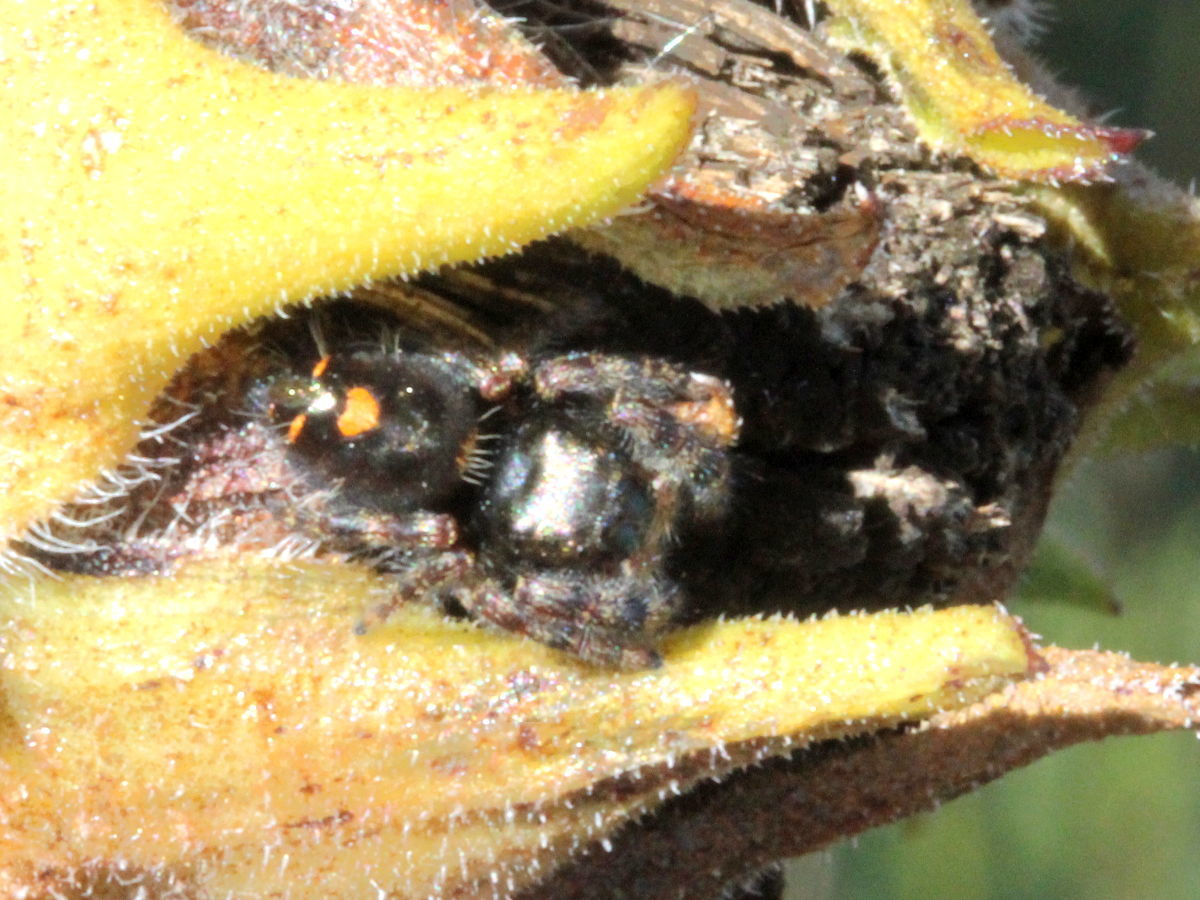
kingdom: Animalia
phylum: Arthropoda
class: Arachnida
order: Araneae
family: Salticidae
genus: Phidippus
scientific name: Phidippus audax
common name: Bold jumper
